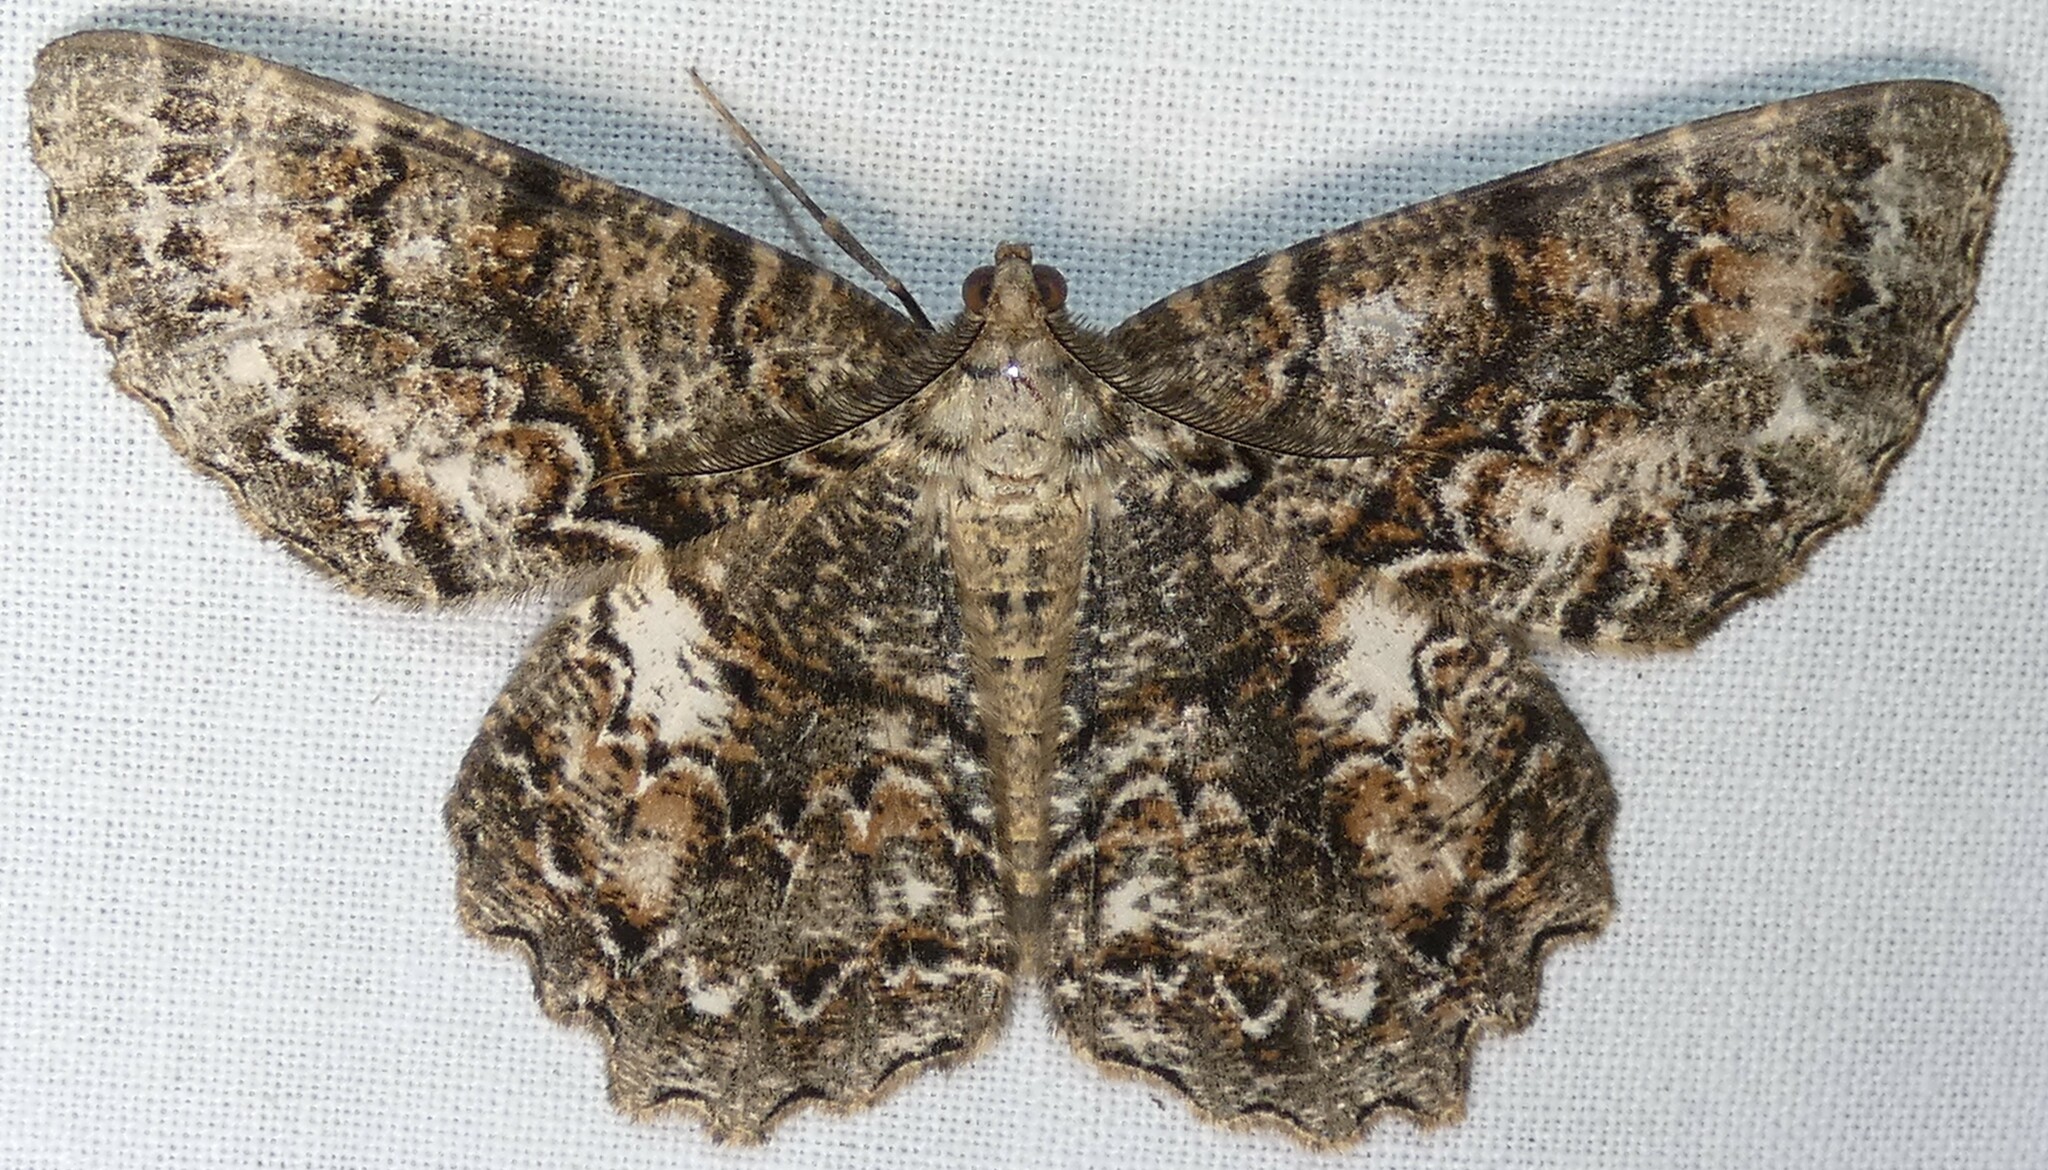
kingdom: Animalia
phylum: Arthropoda
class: Insecta
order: Lepidoptera
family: Geometridae
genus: Epimecis
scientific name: Epimecis hortaria
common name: Tulip-tree beauty
